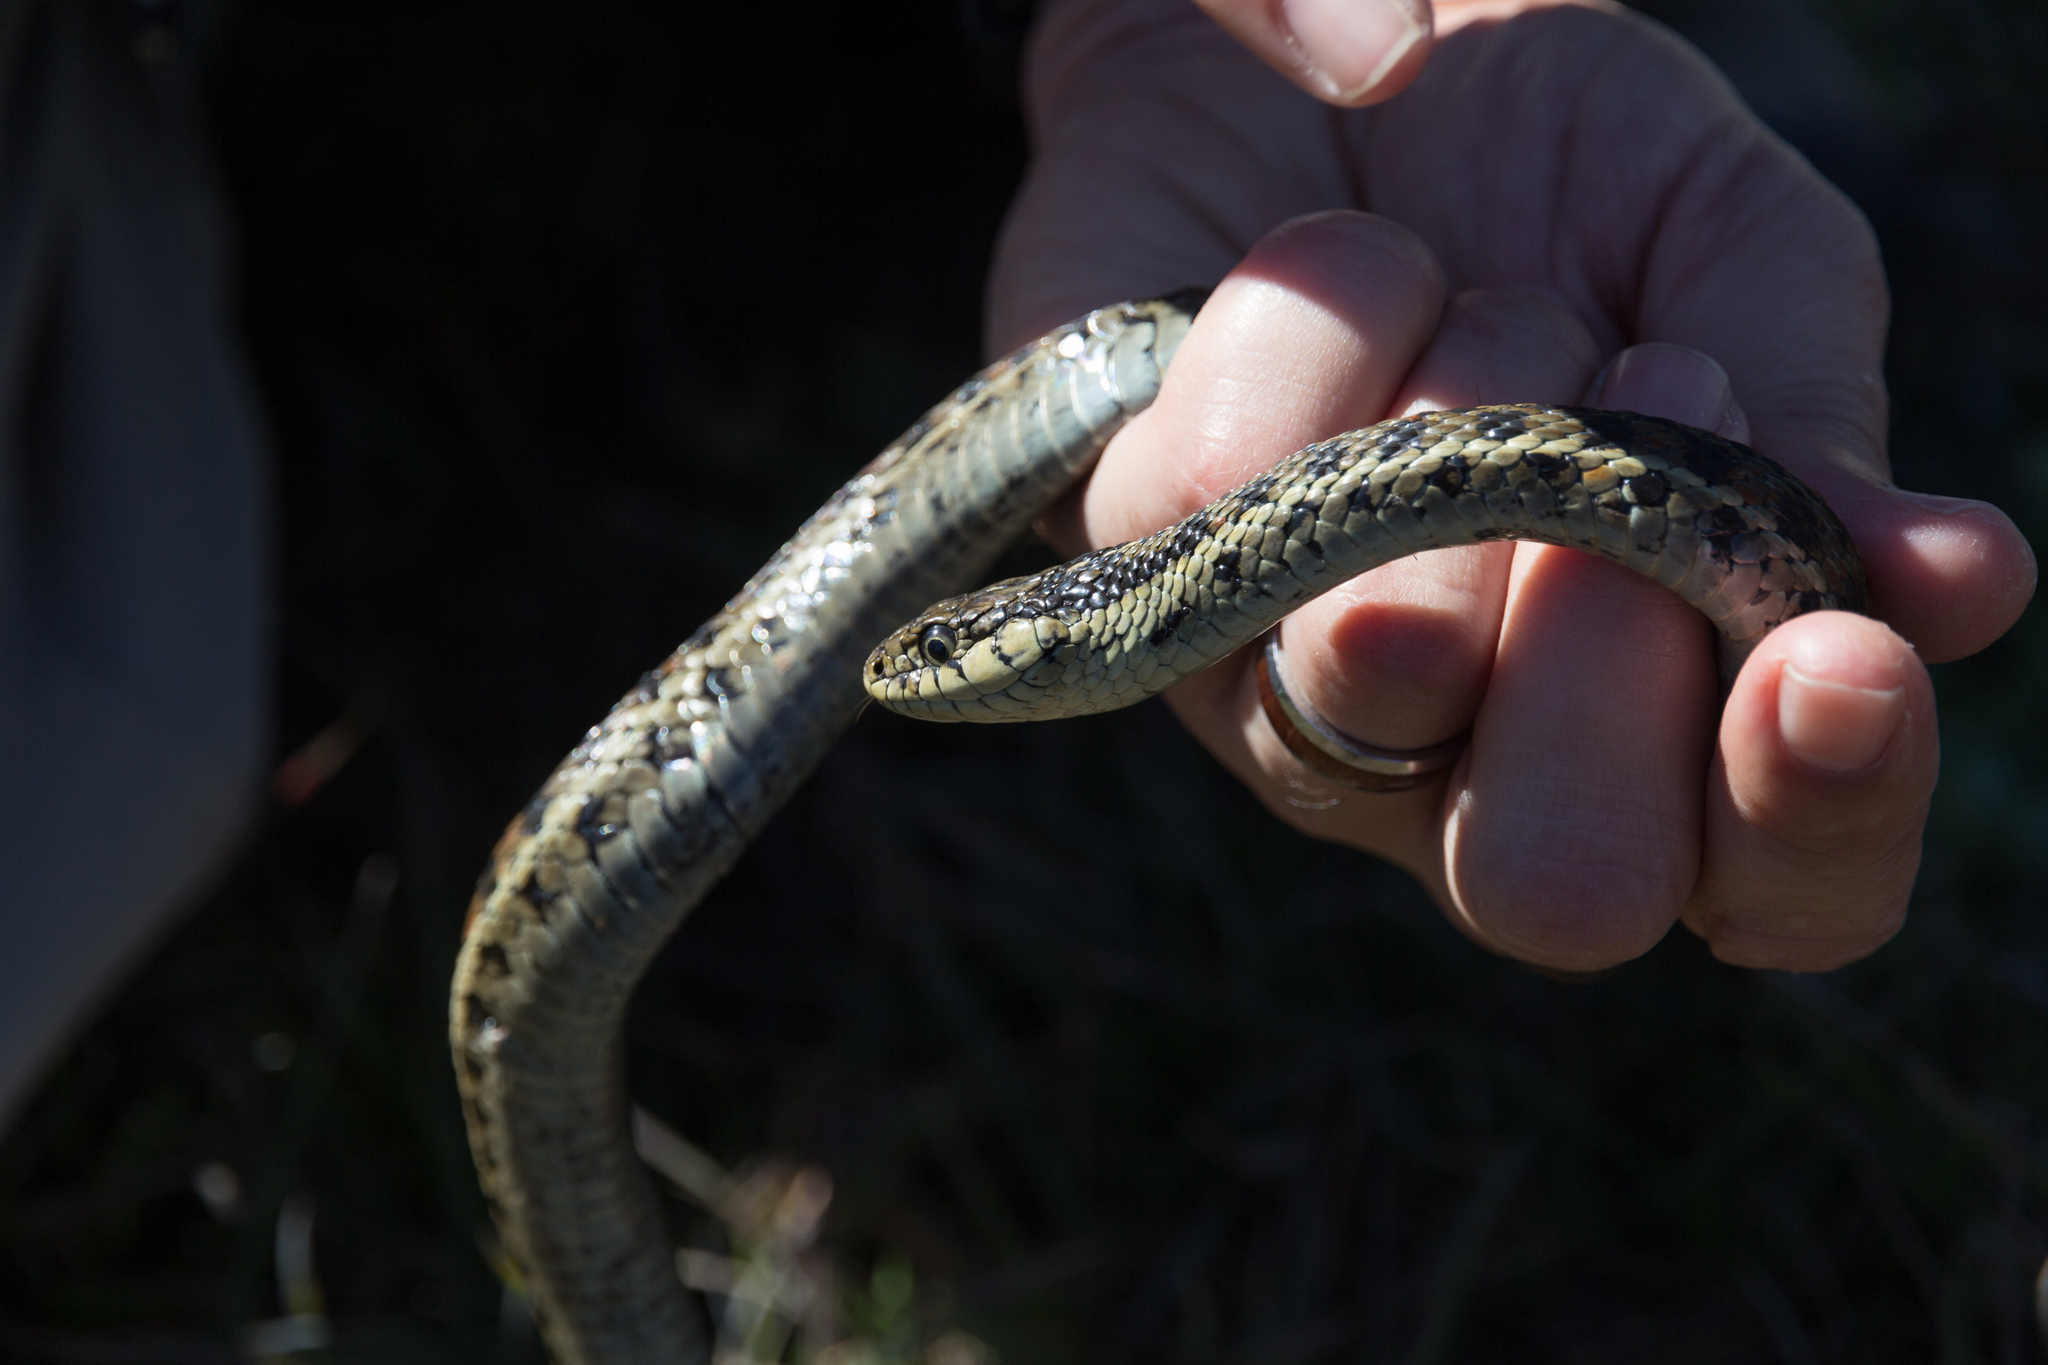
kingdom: Animalia
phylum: Chordata
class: Squamata
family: Colubridae
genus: Thamnophis
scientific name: Thamnophis elegans
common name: Western terrestrial garter snake
